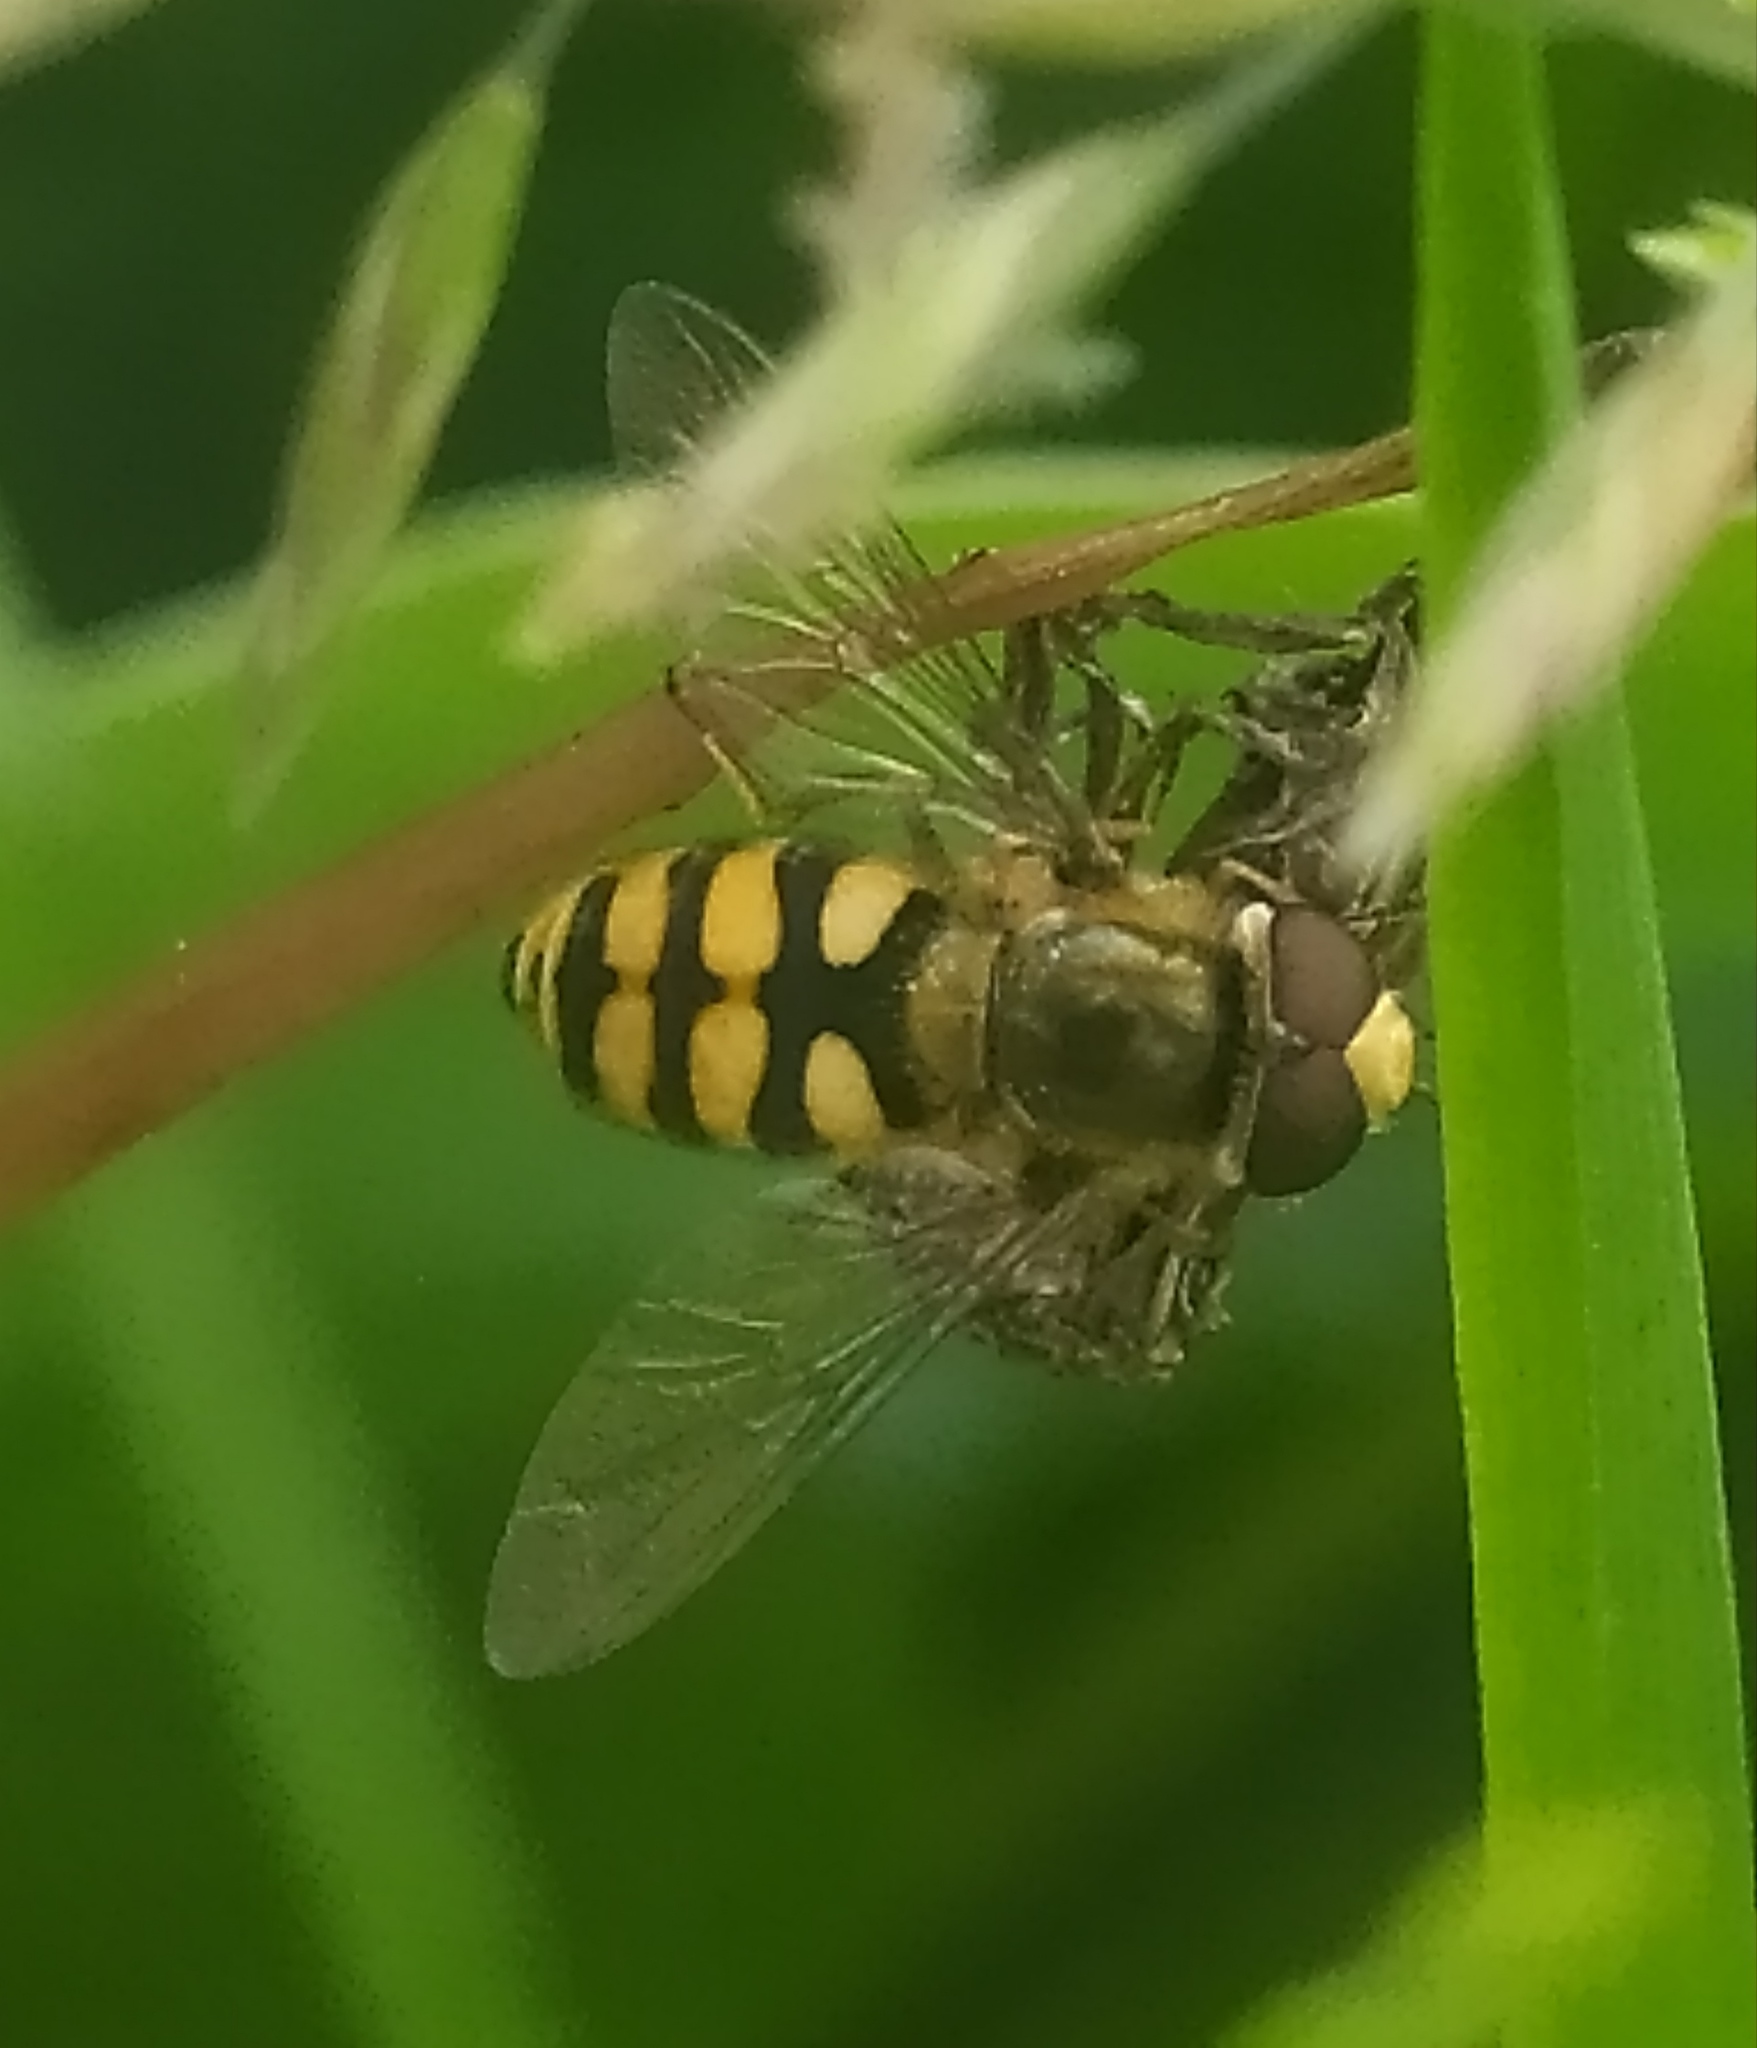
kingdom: Animalia
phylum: Arthropoda
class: Insecta
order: Diptera
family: Syrphidae
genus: Eupeodes
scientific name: Eupeodes corollae
